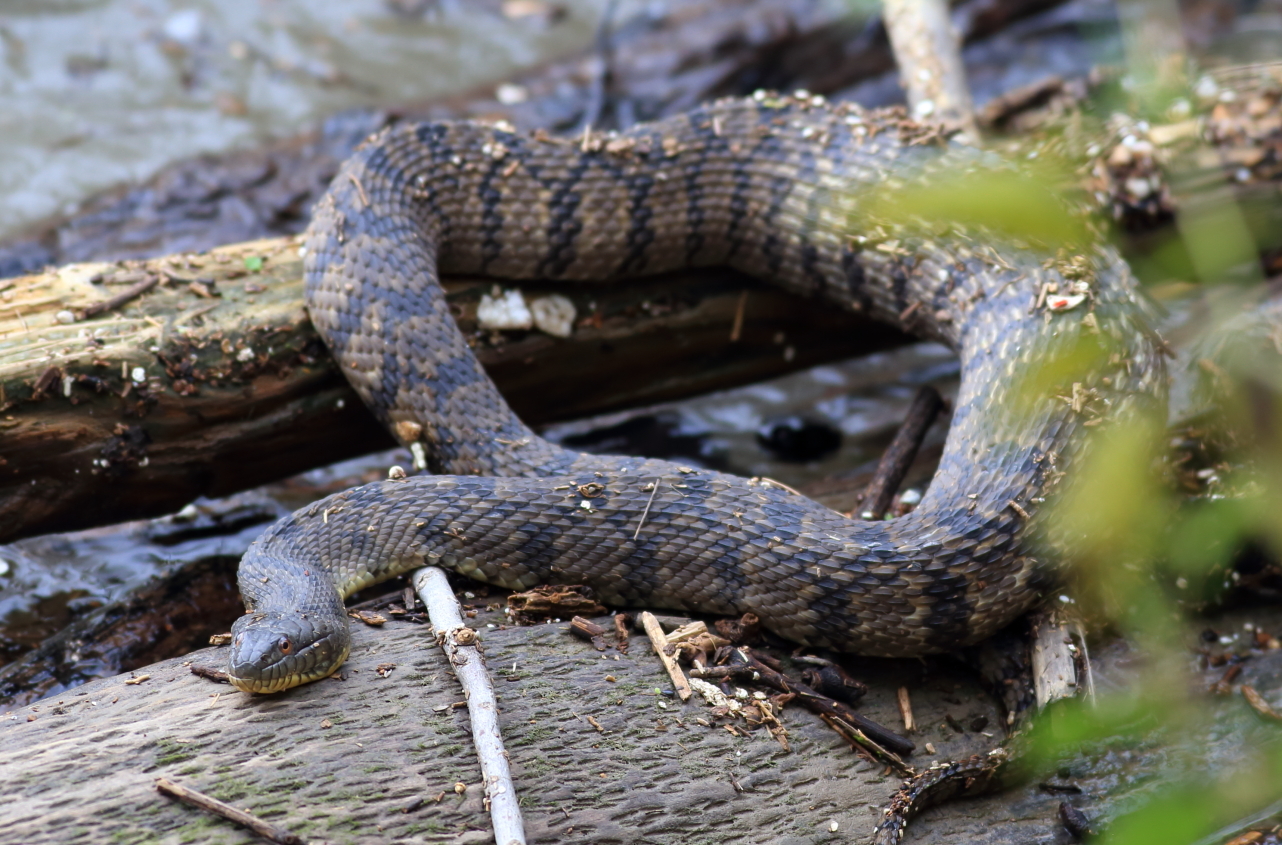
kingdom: Animalia
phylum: Chordata
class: Squamata
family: Colubridae
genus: Nerodia
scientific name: Nerodia rhombifer
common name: Diamondback water snake
